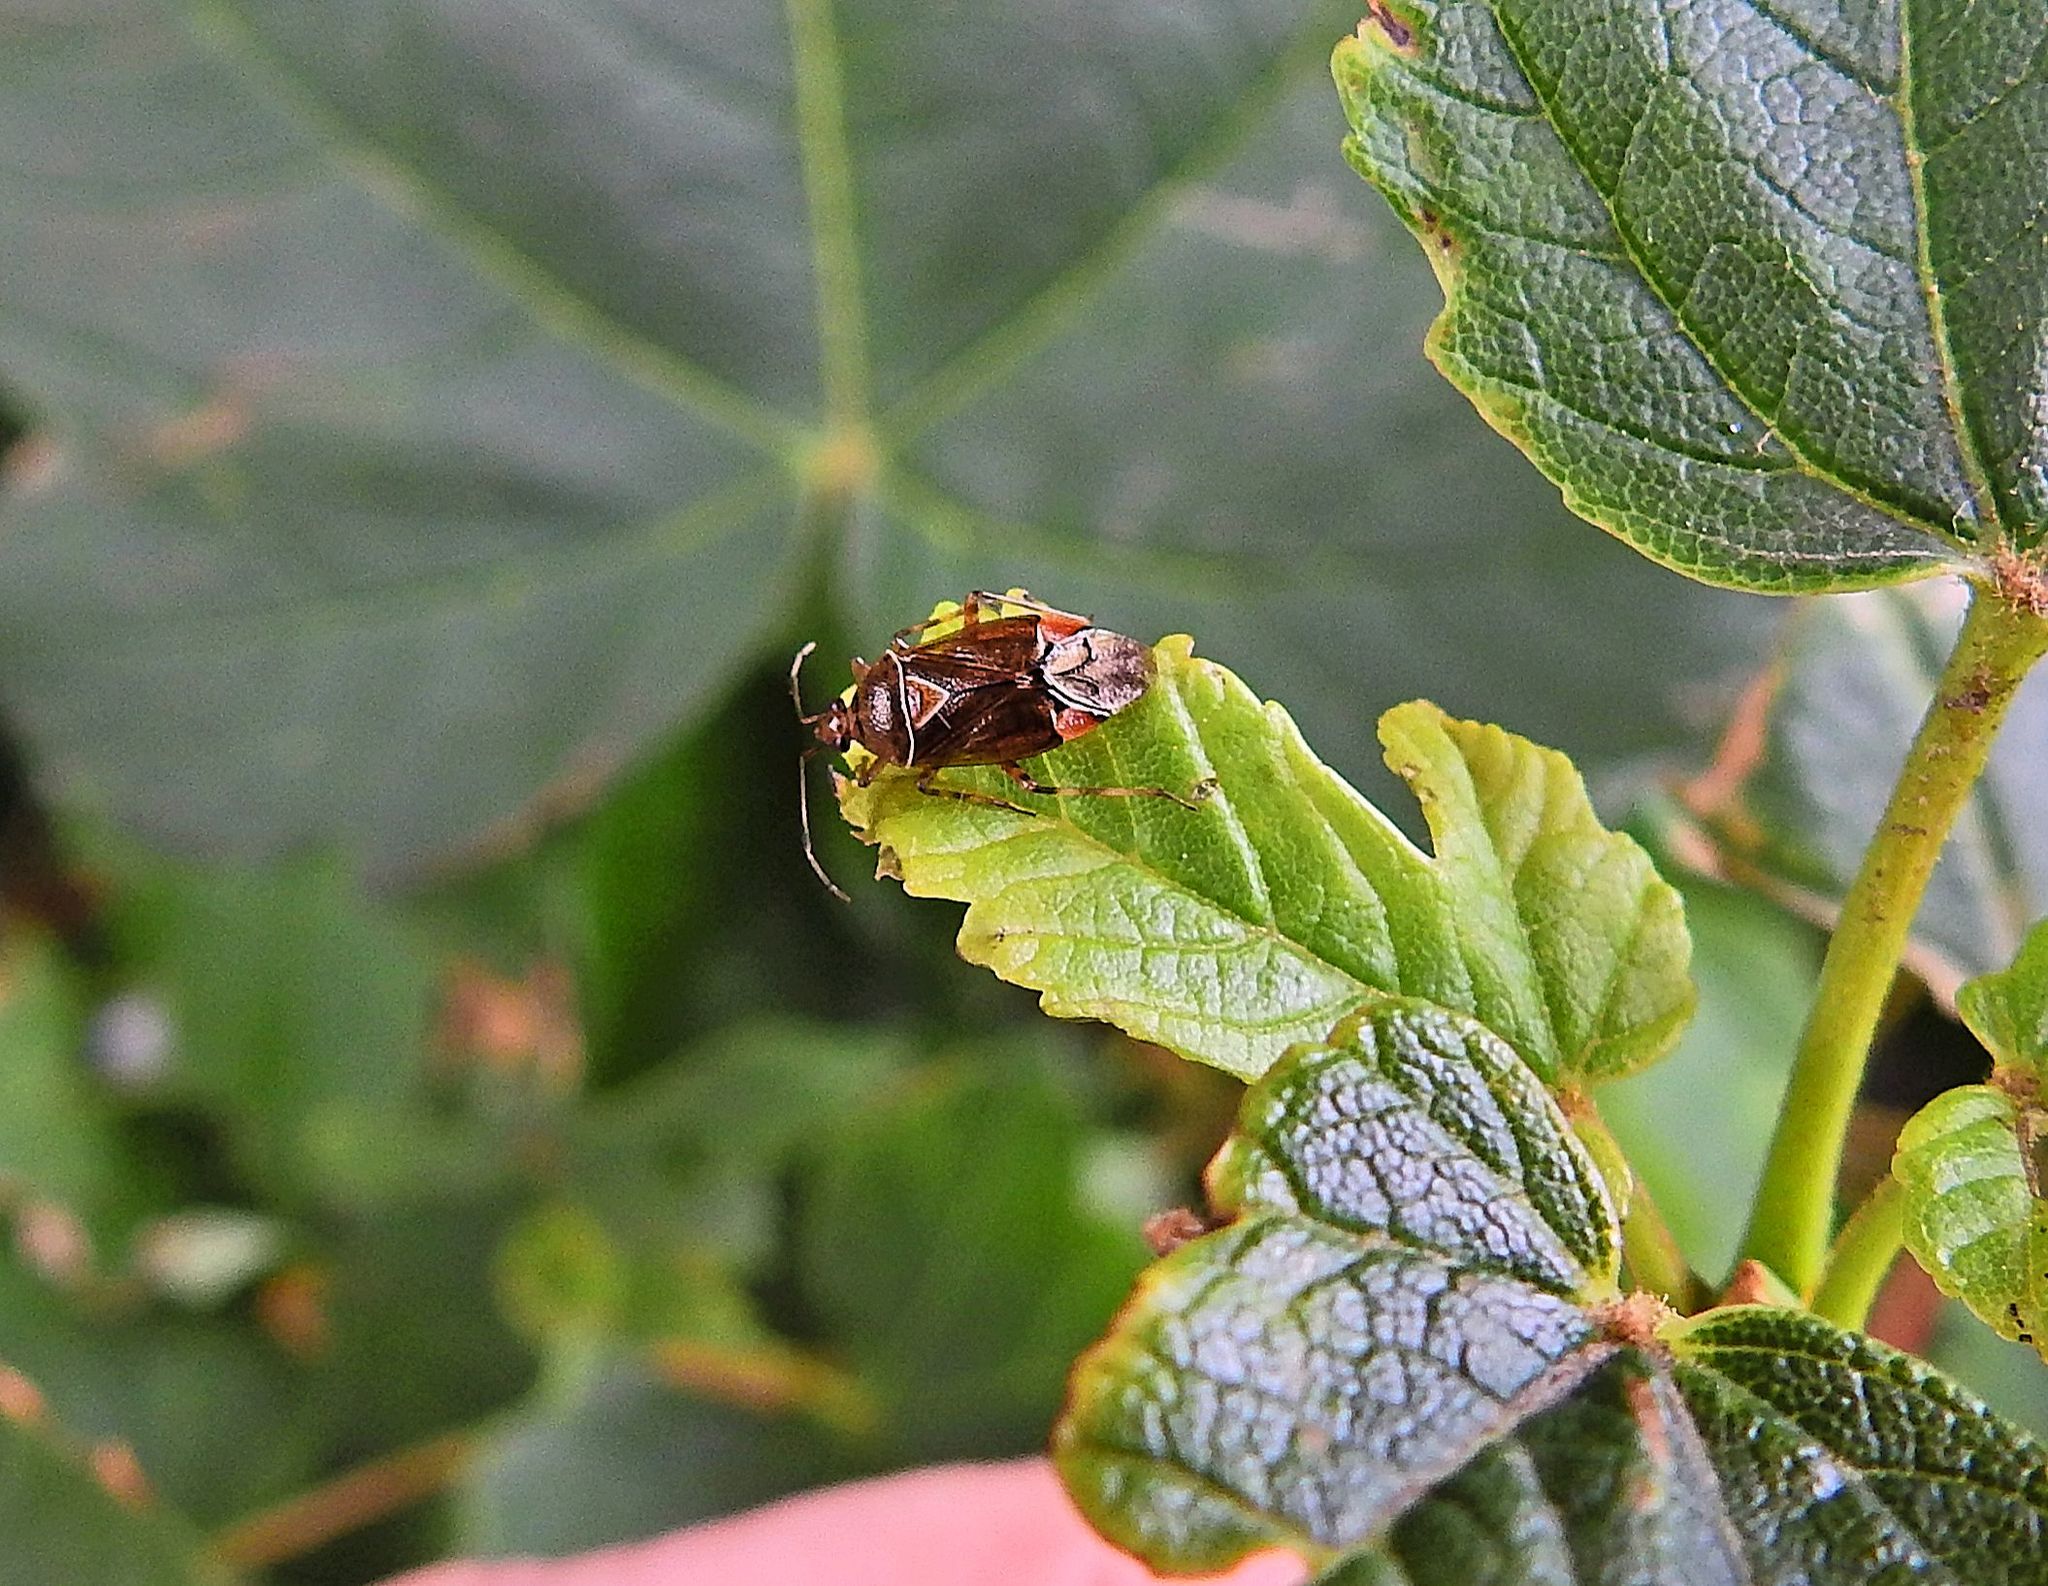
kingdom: Animalia
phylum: Arthropoda
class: Insecta
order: Hemiptera
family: Miridae
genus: Deraeocoris
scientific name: Deraeocoris flavilinea
